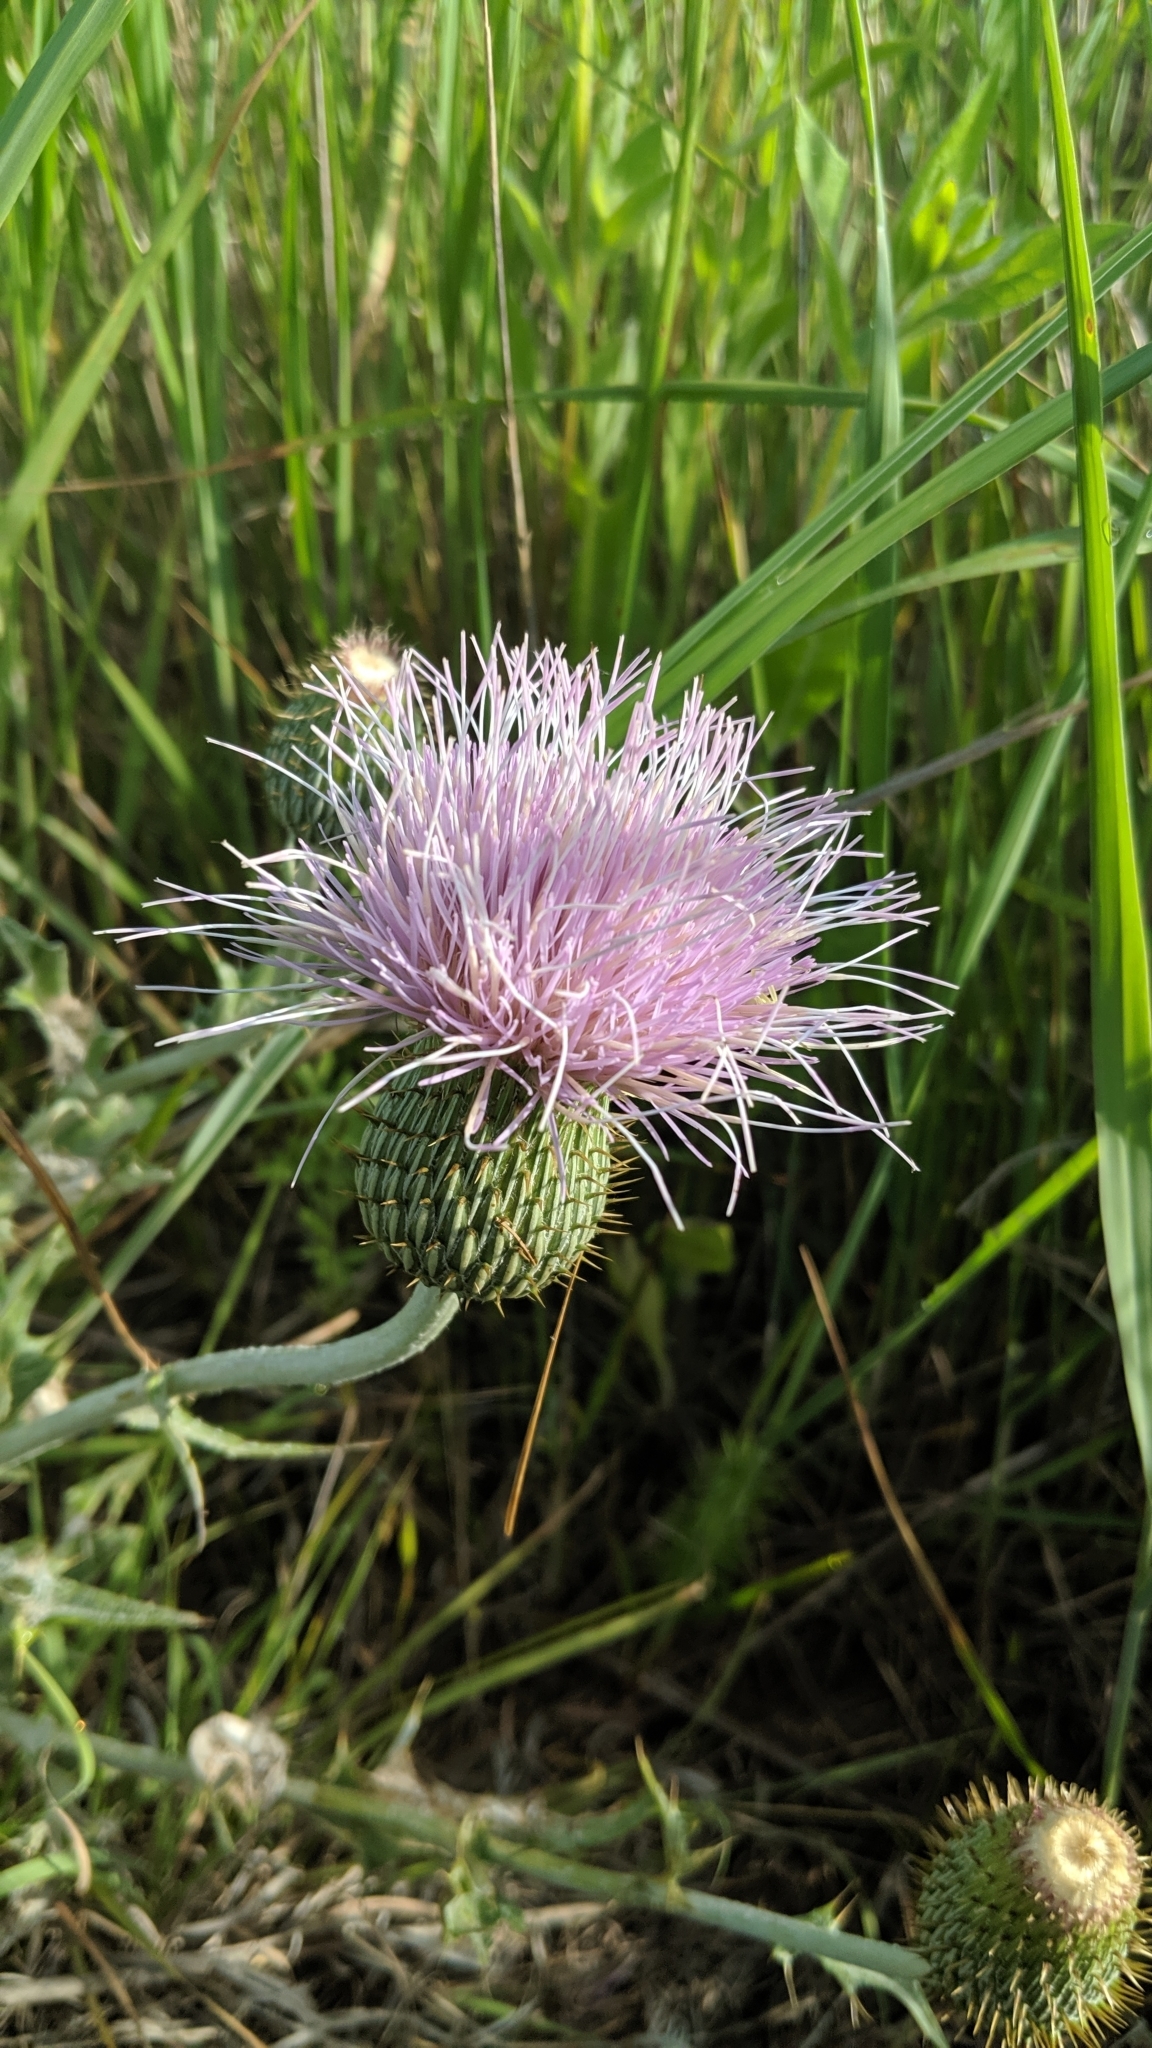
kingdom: Plantae
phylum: Tracheophyta
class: Magnoliopsida
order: Asterales
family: Asteraceae
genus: Cirsium
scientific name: Cirsium undulatum
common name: Pasture thistle
